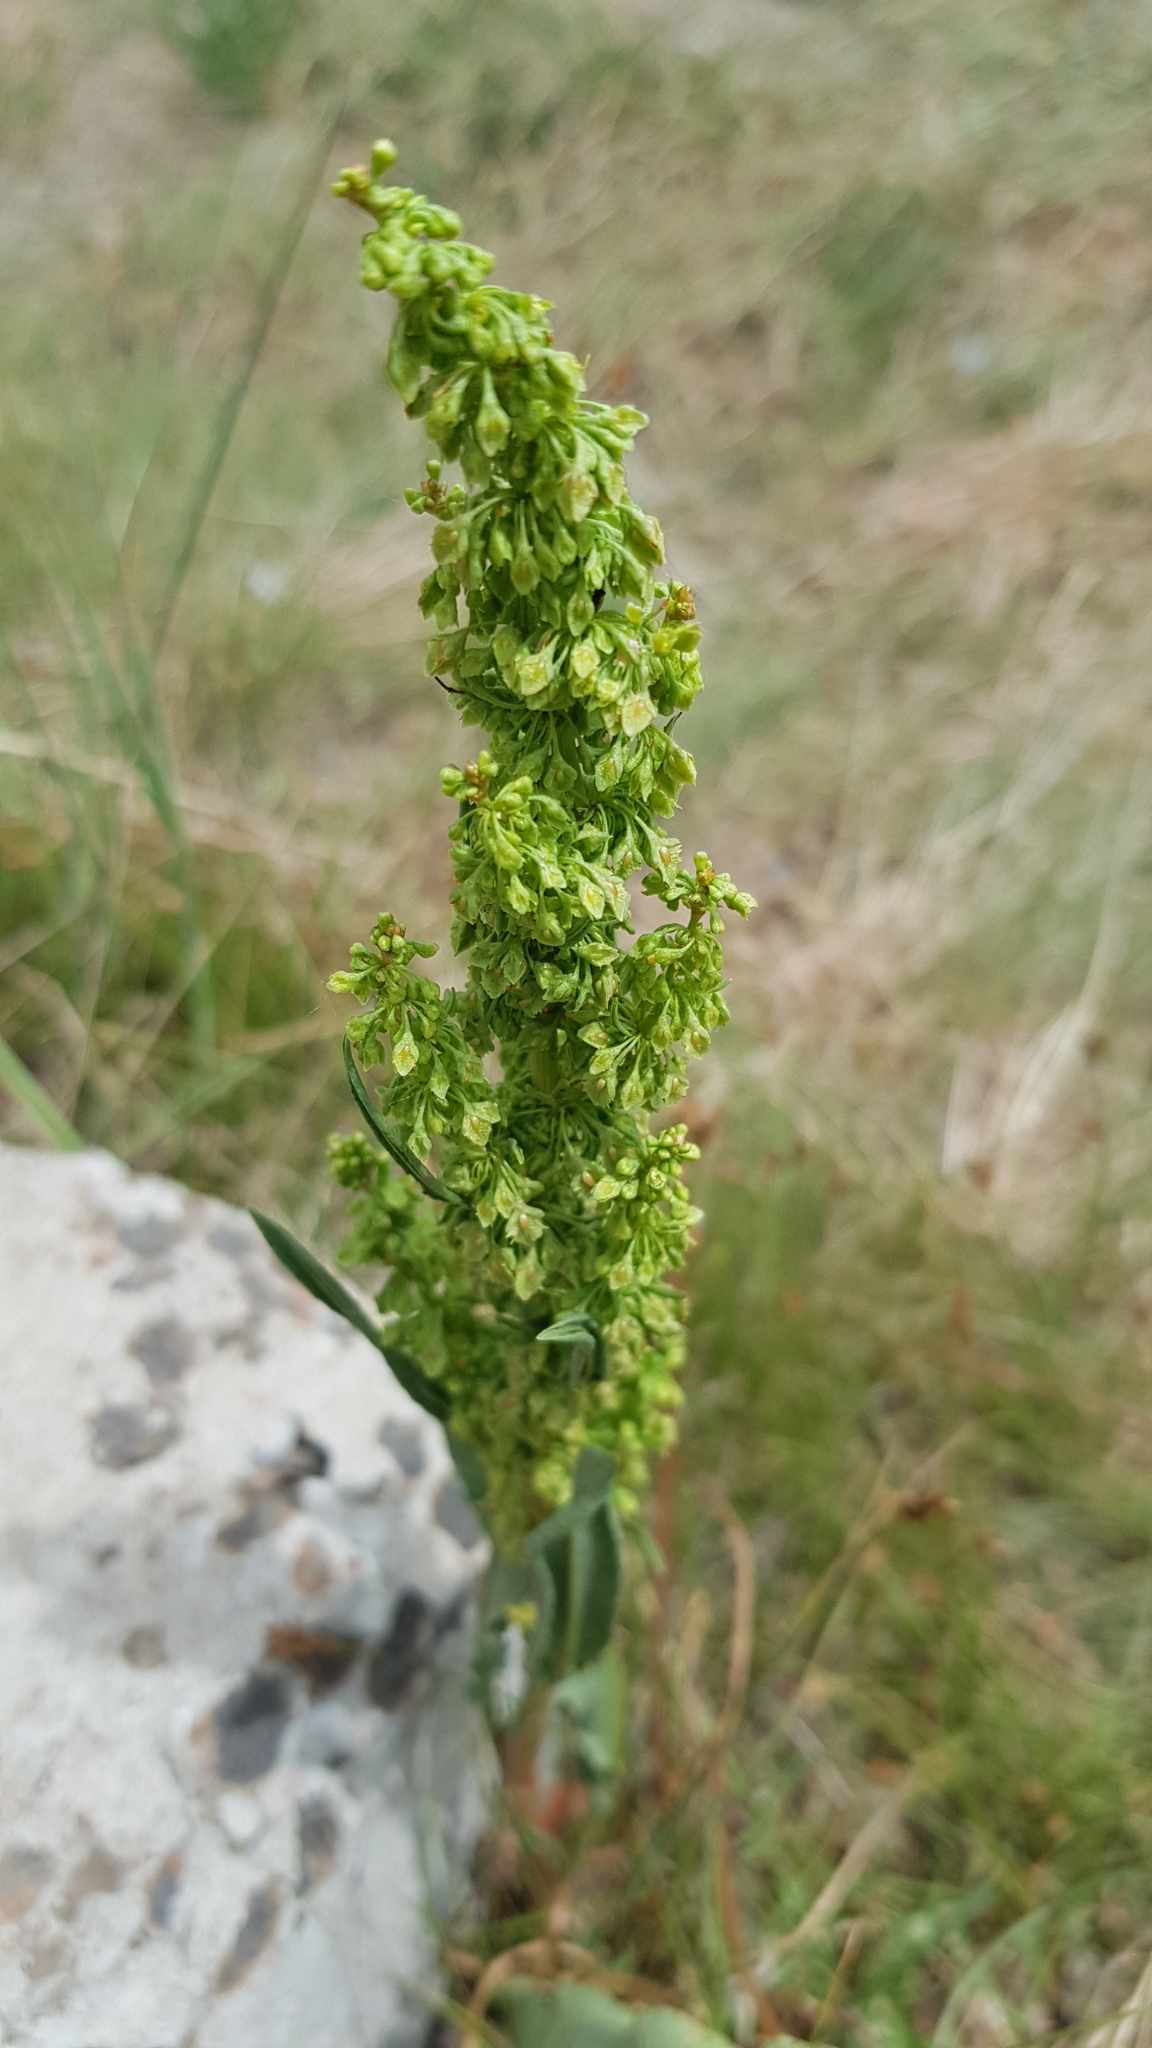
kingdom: Plantae
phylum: Tracheophyta
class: Magnoliopsida
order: Caryophyllales
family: Polygonaceae
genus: Rumex
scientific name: Rumex stenophyllus
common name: Narrowleaf dock
